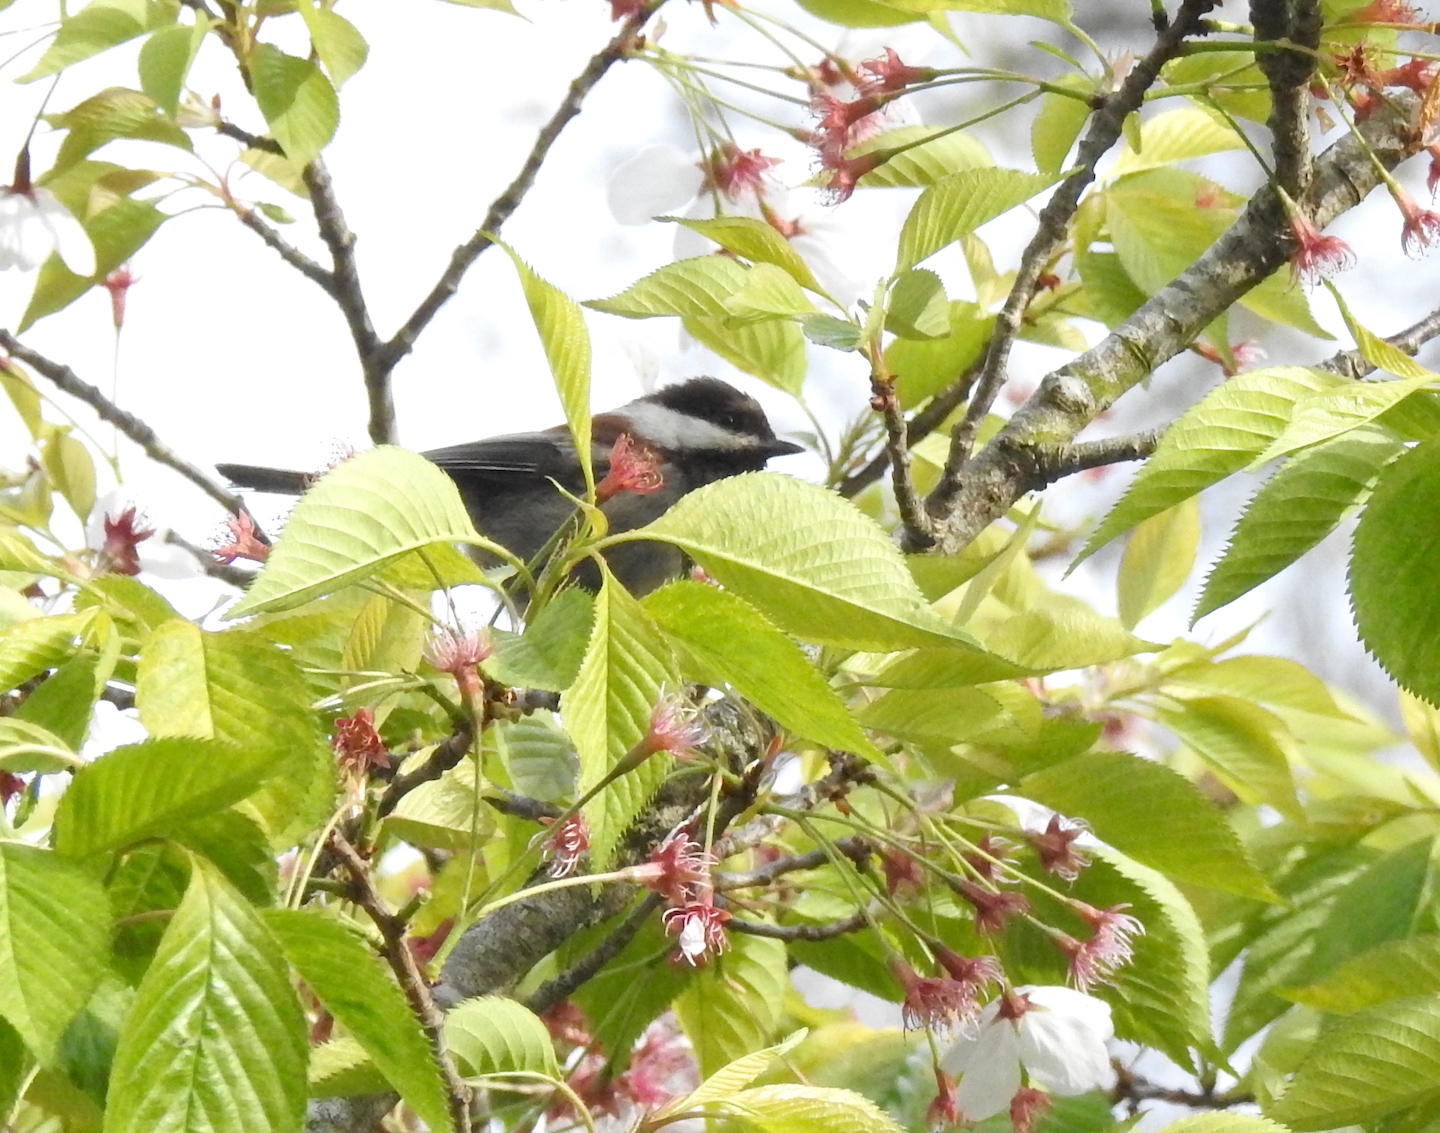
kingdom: Animalia
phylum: Chordata
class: Aves
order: Passeriformes
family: Paridae
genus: Poecile
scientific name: Poecile rufescens
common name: Chestnut-backed chickadee
